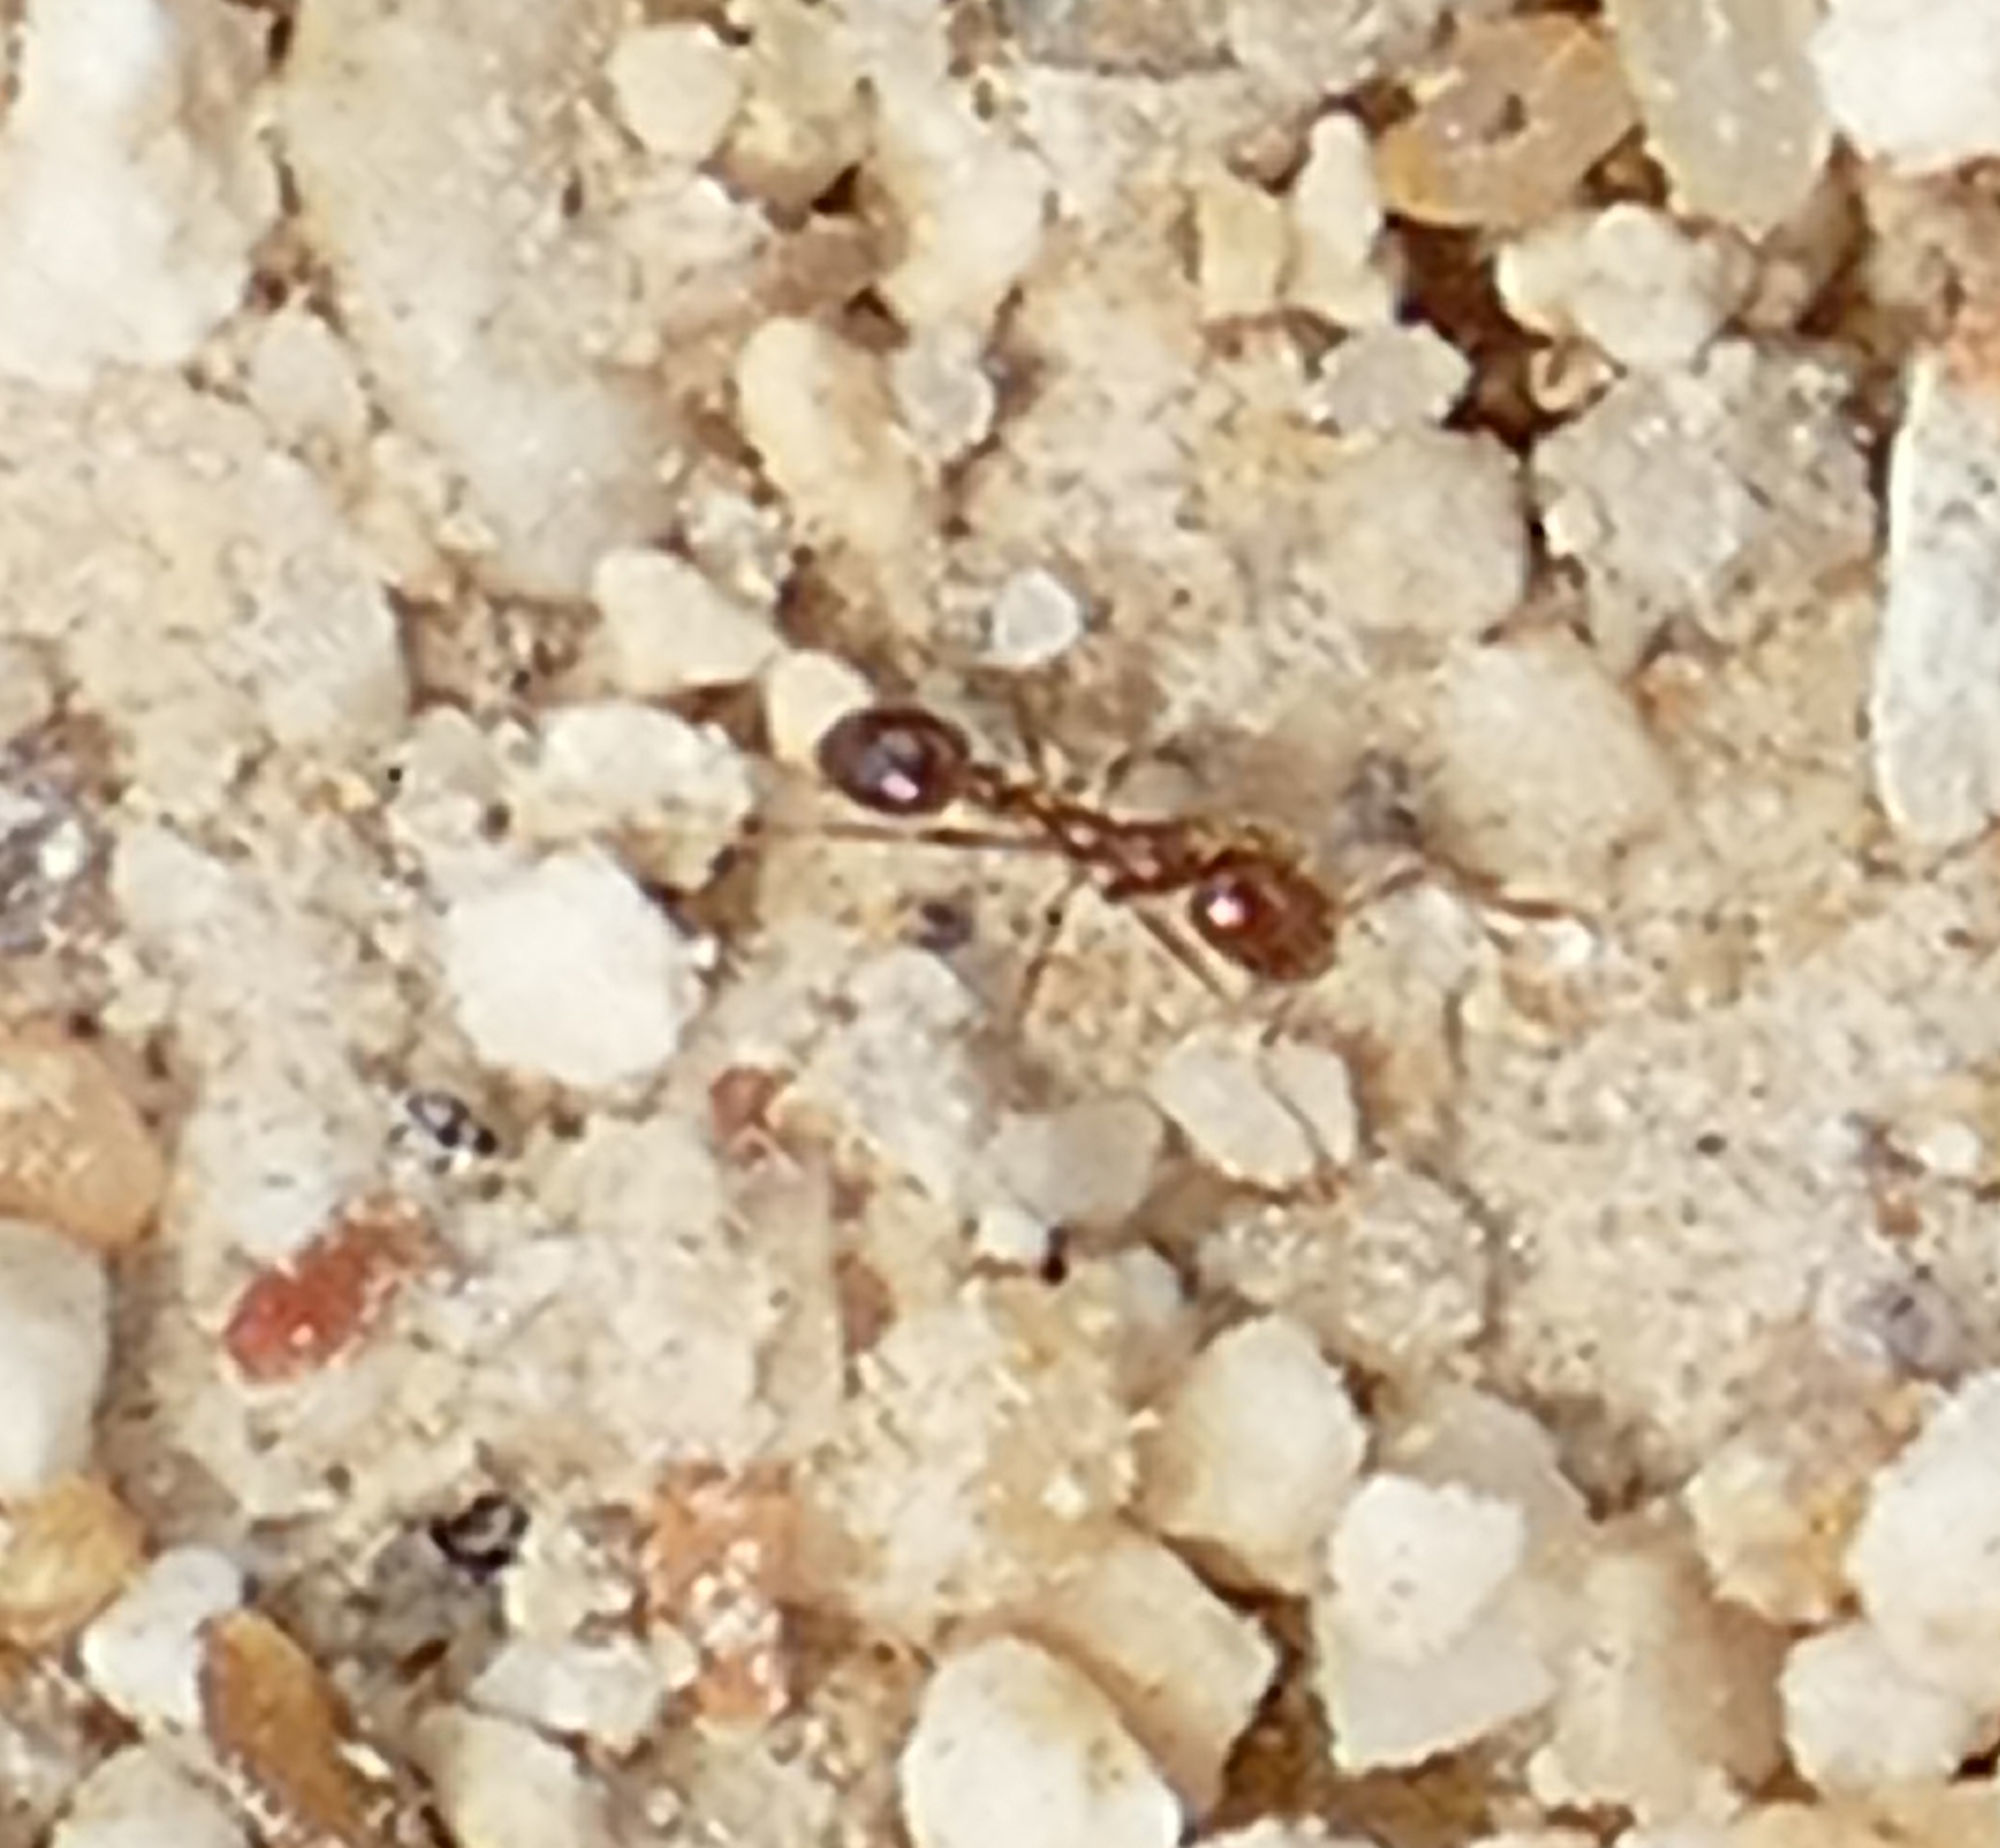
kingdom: Animalia
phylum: Arthropoda
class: Insecta
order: Hymenoptera
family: Formicidae
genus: Solenopsis
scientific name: Solenopsis invicta
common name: Red imported fire ant
